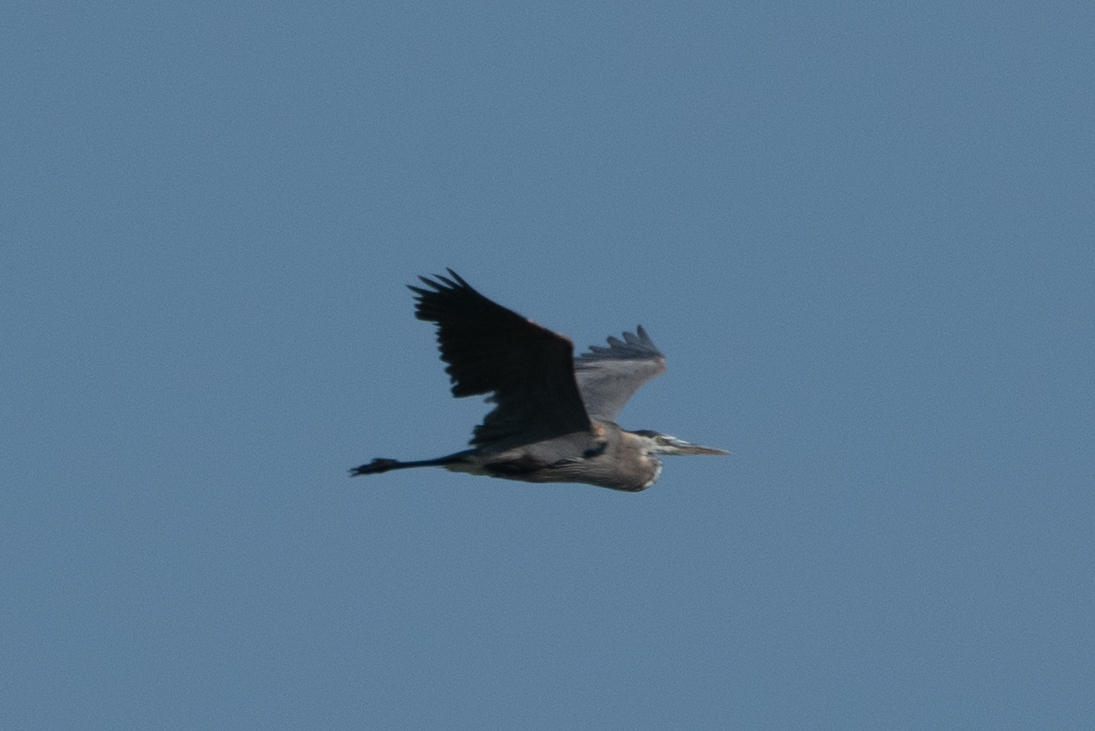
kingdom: Animalia
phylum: Chordata
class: Aves
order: Pelecaniformes
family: Ardeidae
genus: Ardea
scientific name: Ardea herodias
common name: Great blue heron
